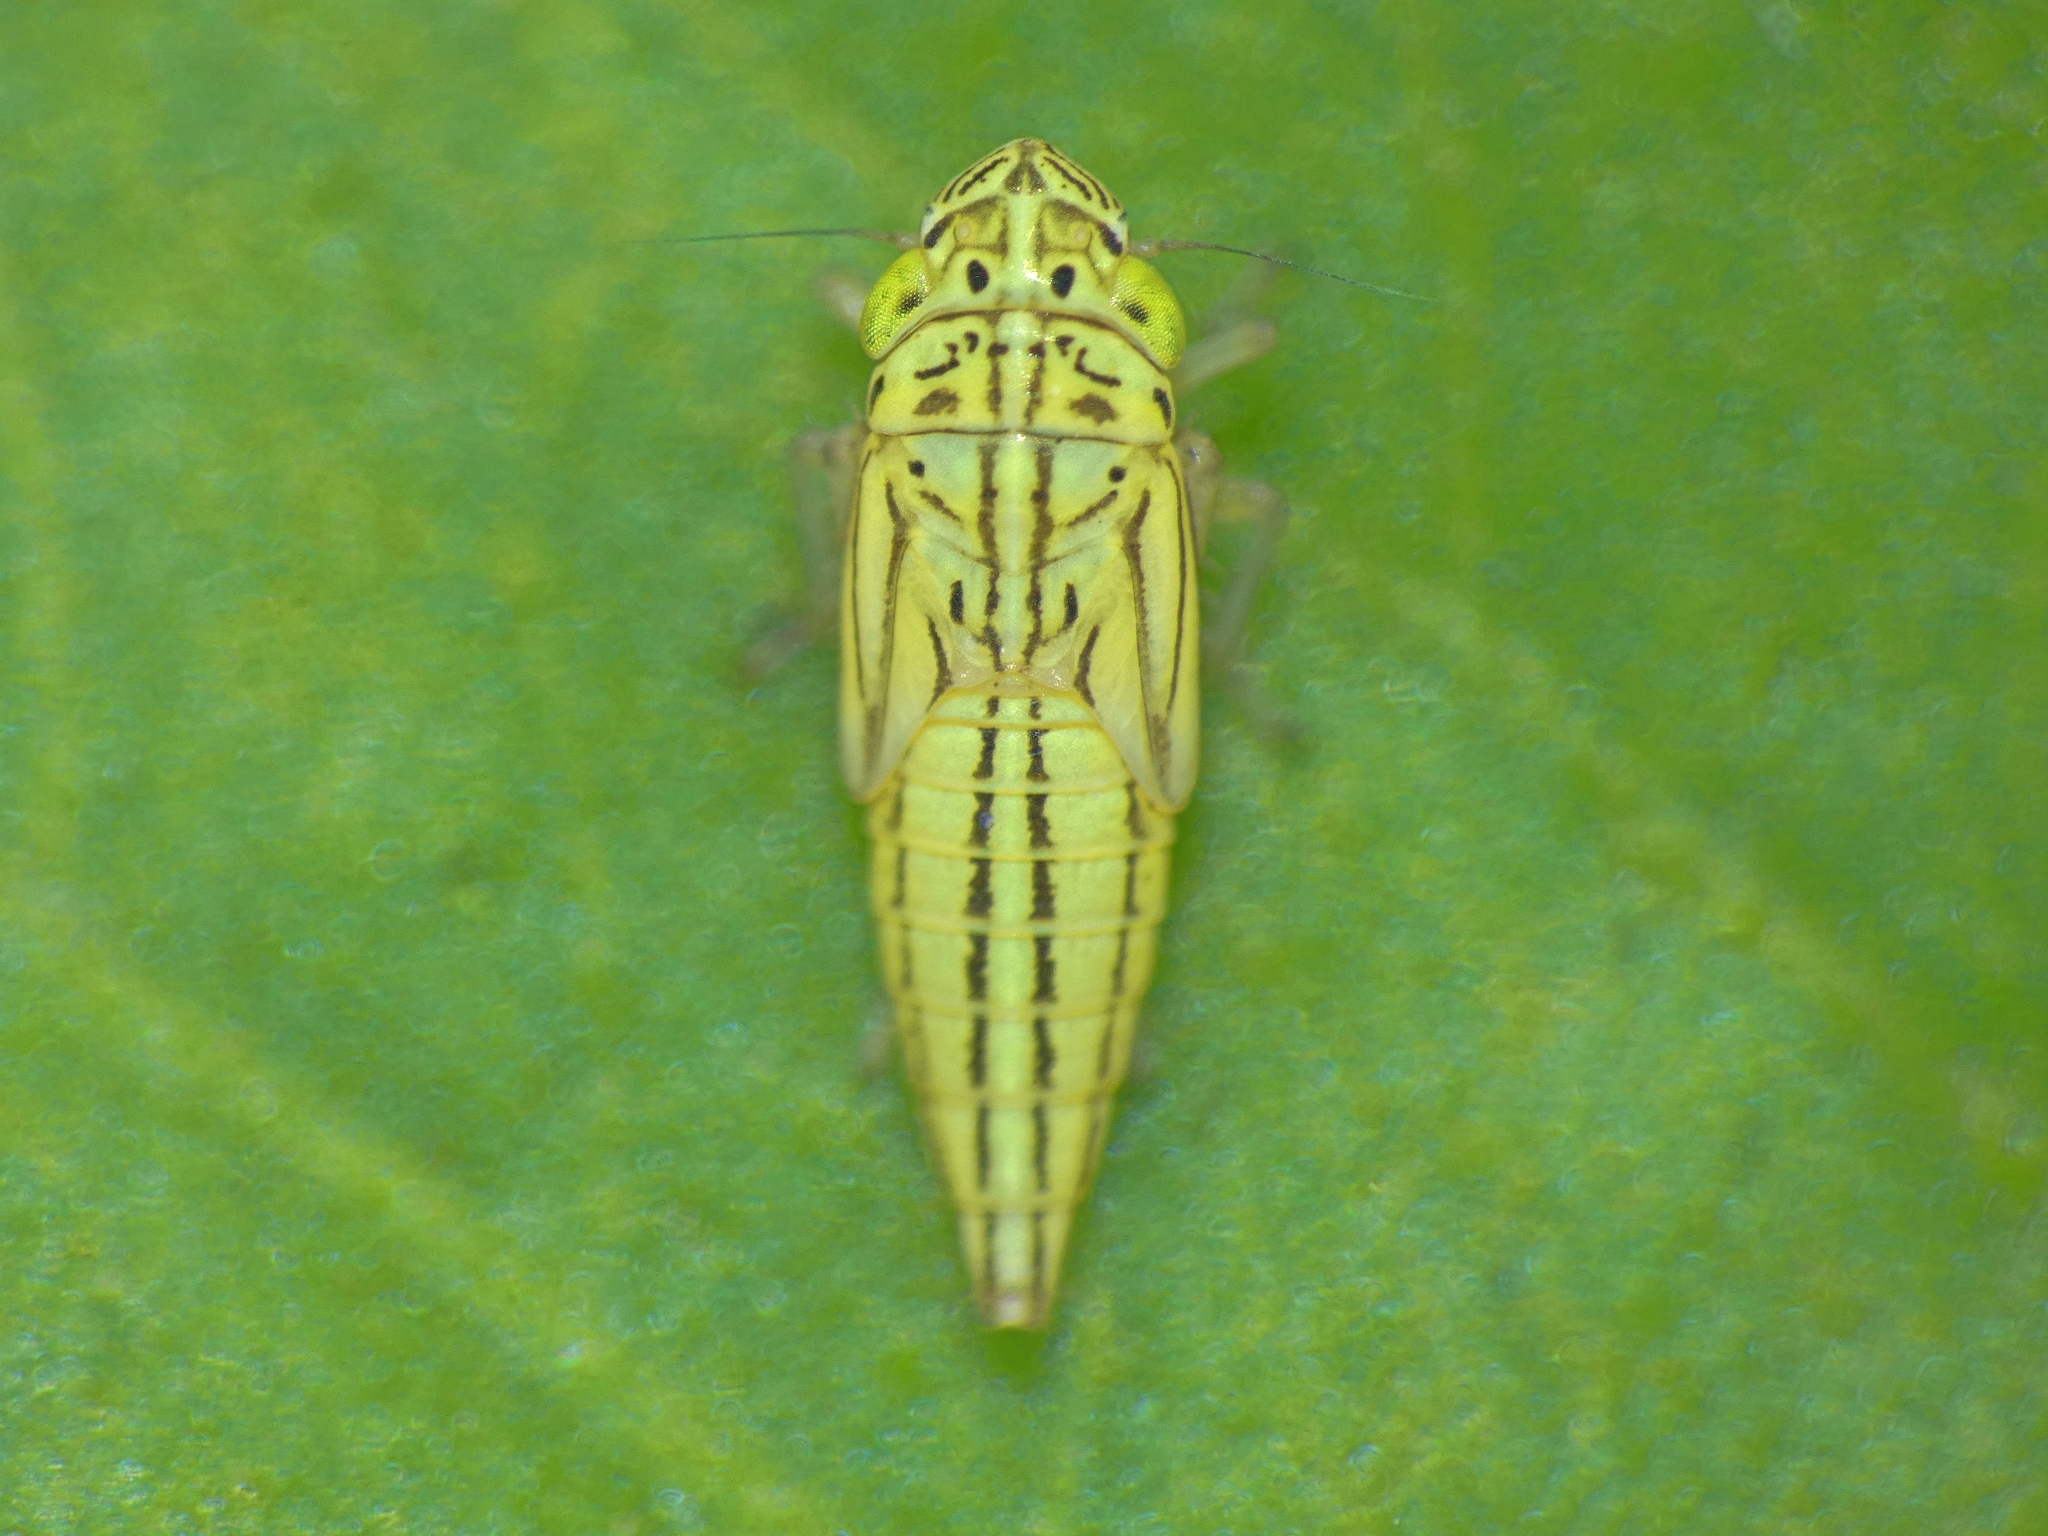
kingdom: Animalia
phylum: Arthropoda
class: Insecta
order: Hemiptera
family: Cicadellidae
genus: Hortensia
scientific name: Hortensia similis
